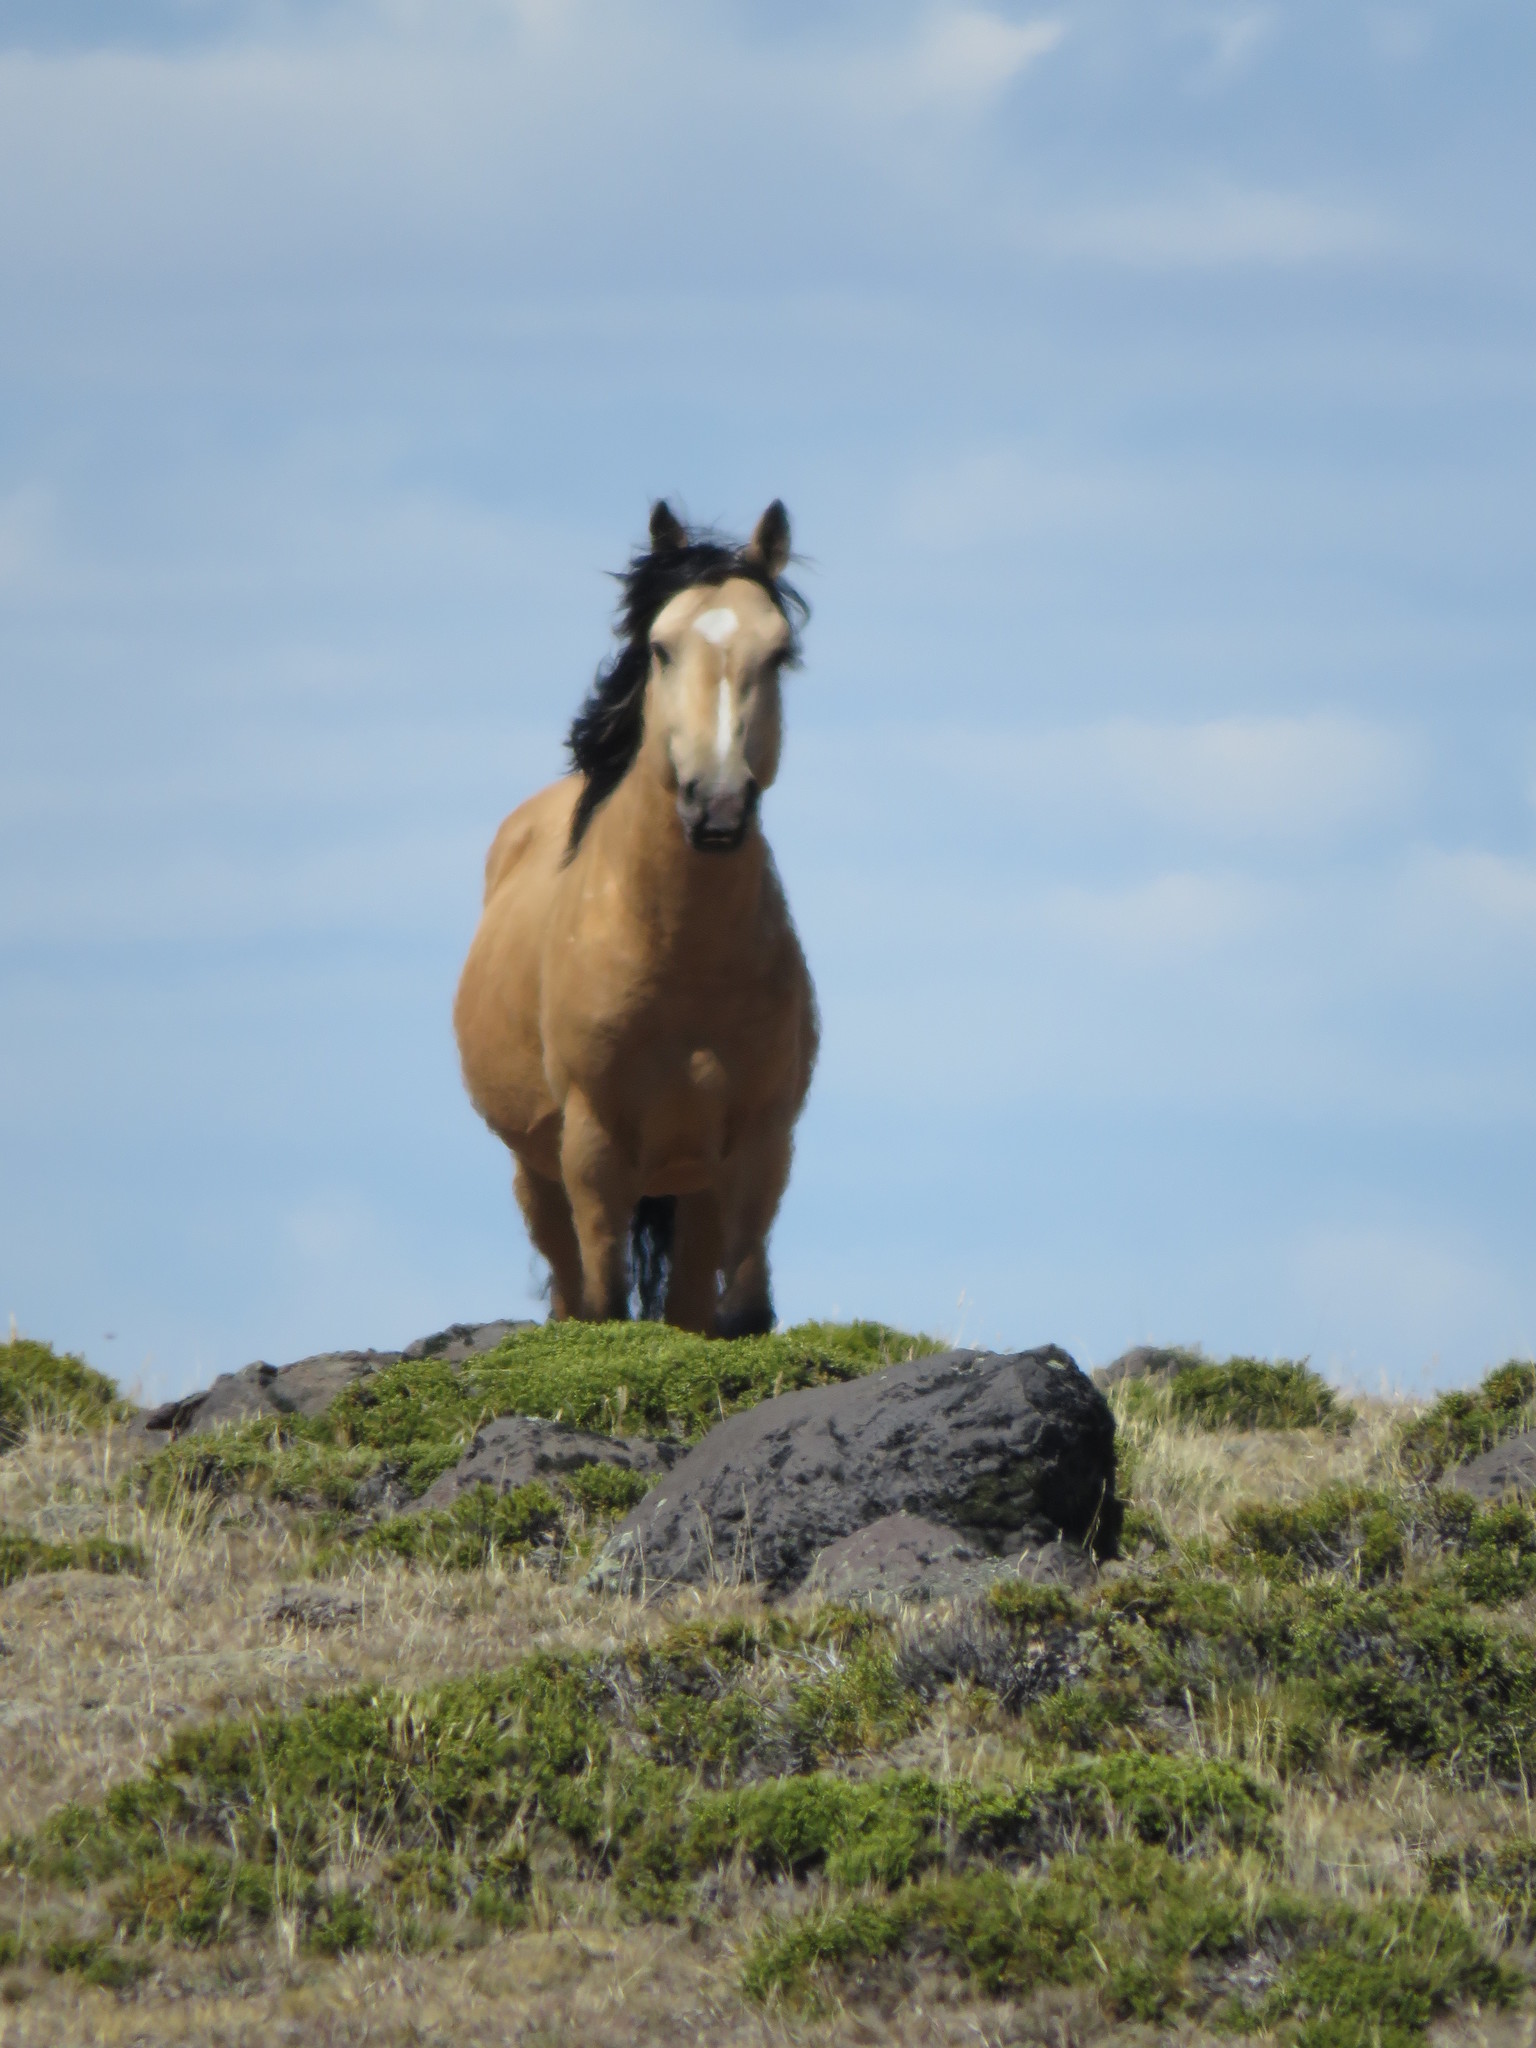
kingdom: Animalia
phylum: Chordata
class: Mammalia
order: Perissodactyla
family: Equidae
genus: Equus
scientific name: Equus caballus
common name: Horse
